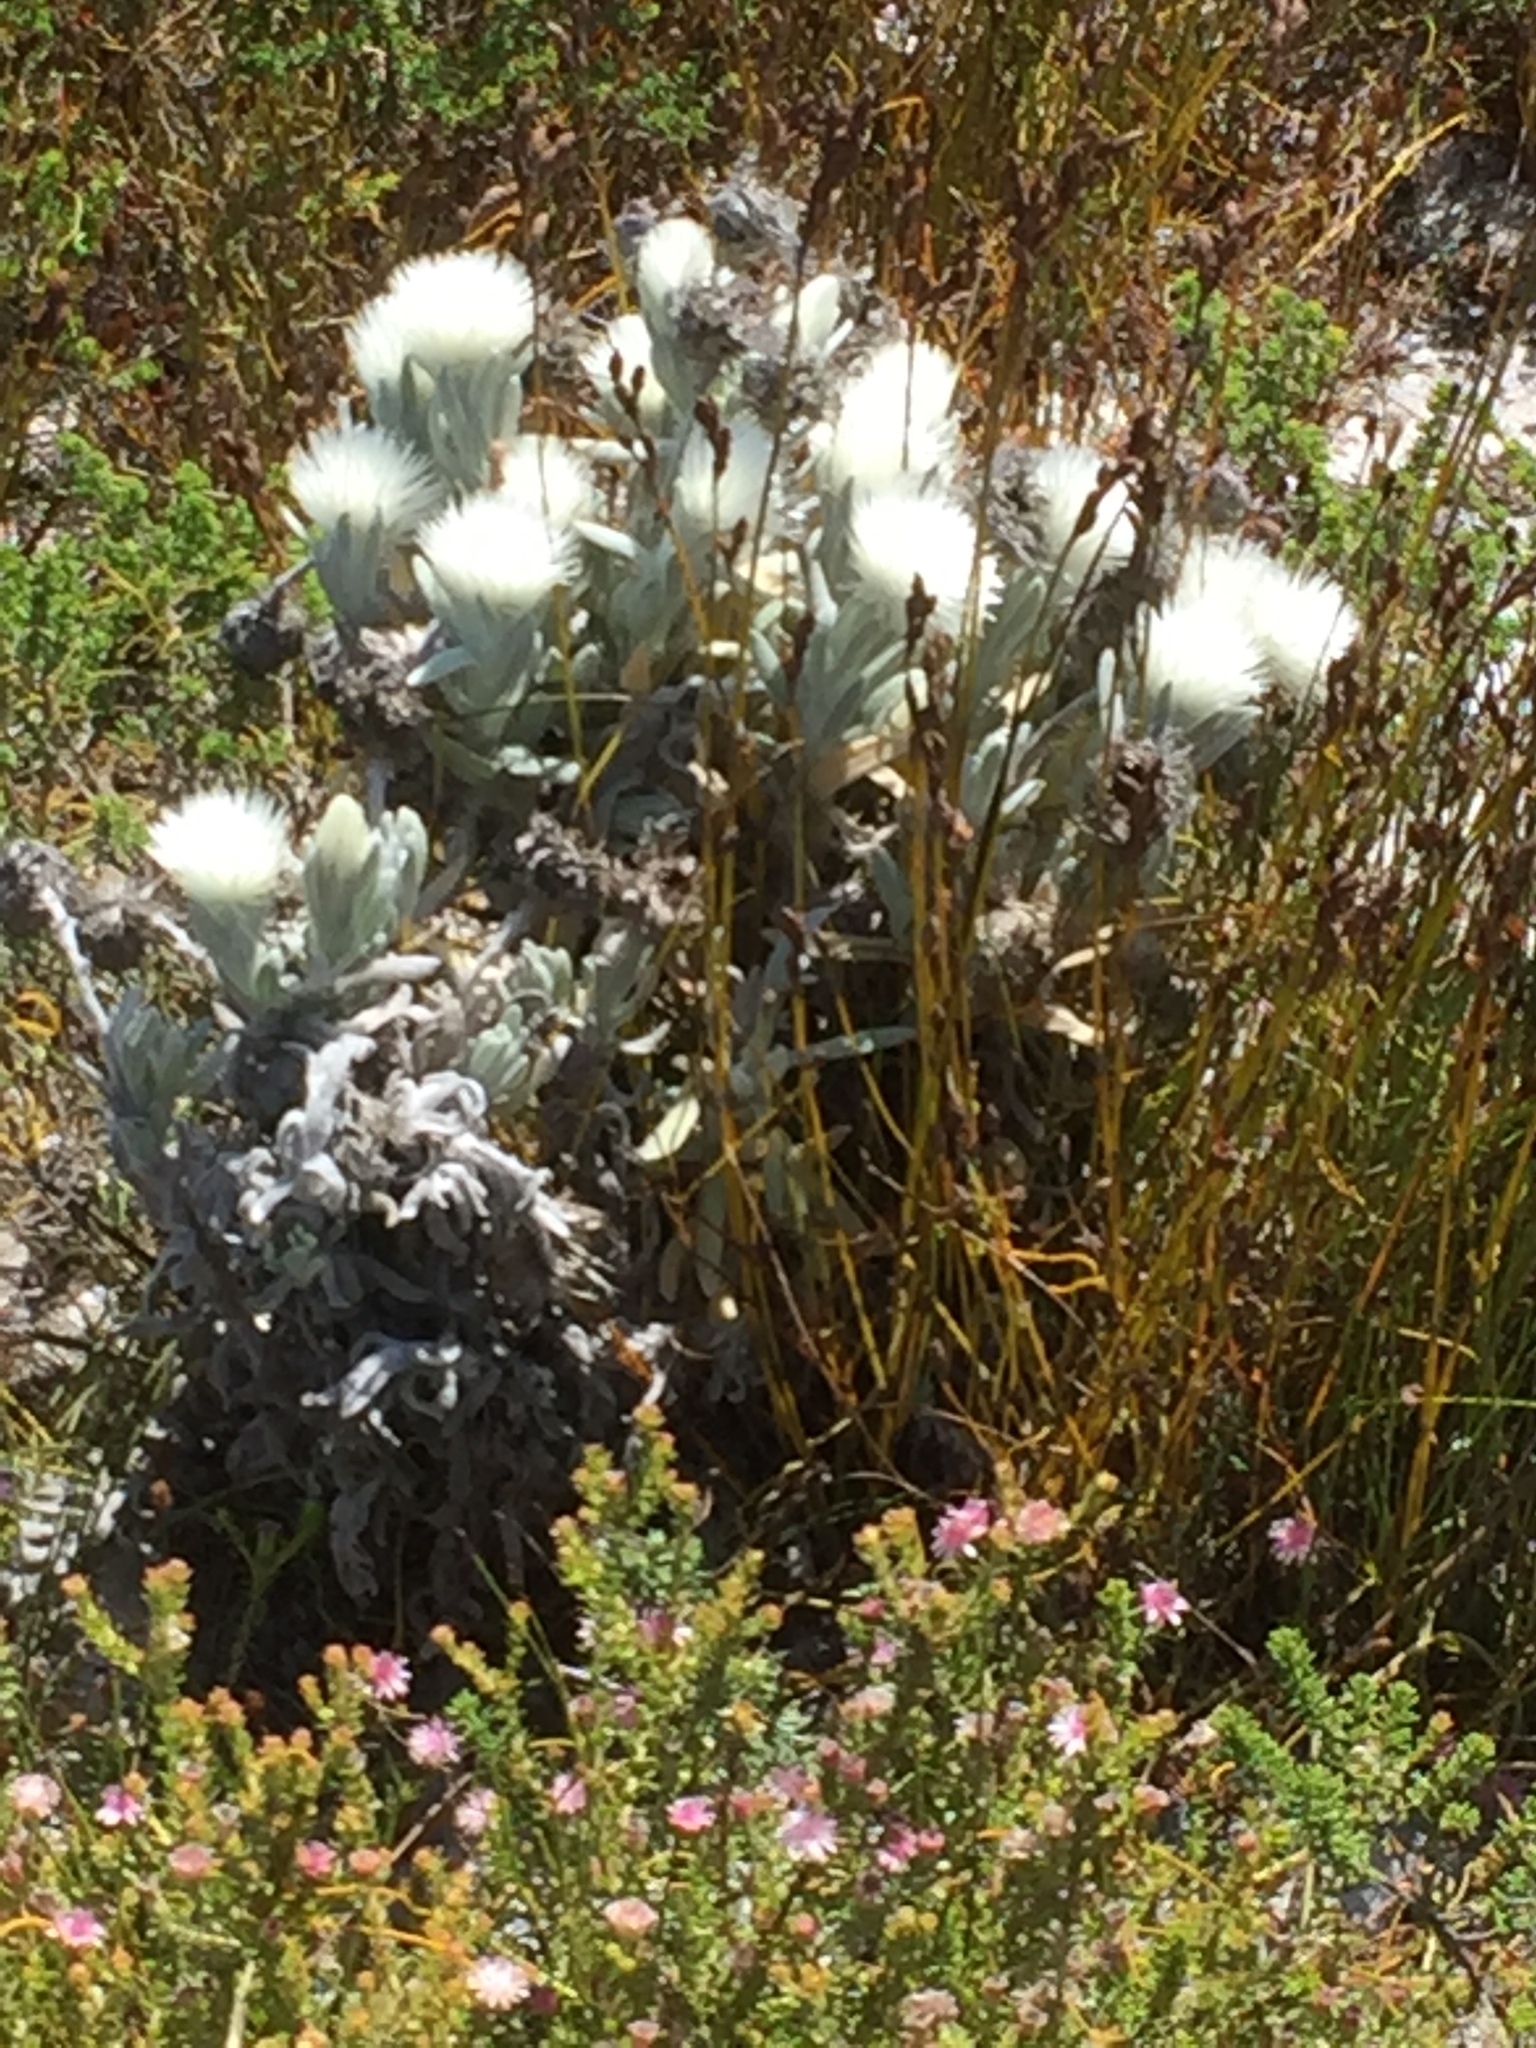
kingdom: Plantae
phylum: Tracheophyta
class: Magnoliopsida
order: Asterales
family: Asteraceae
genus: Syncarpha
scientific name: Syncarpha vestita
